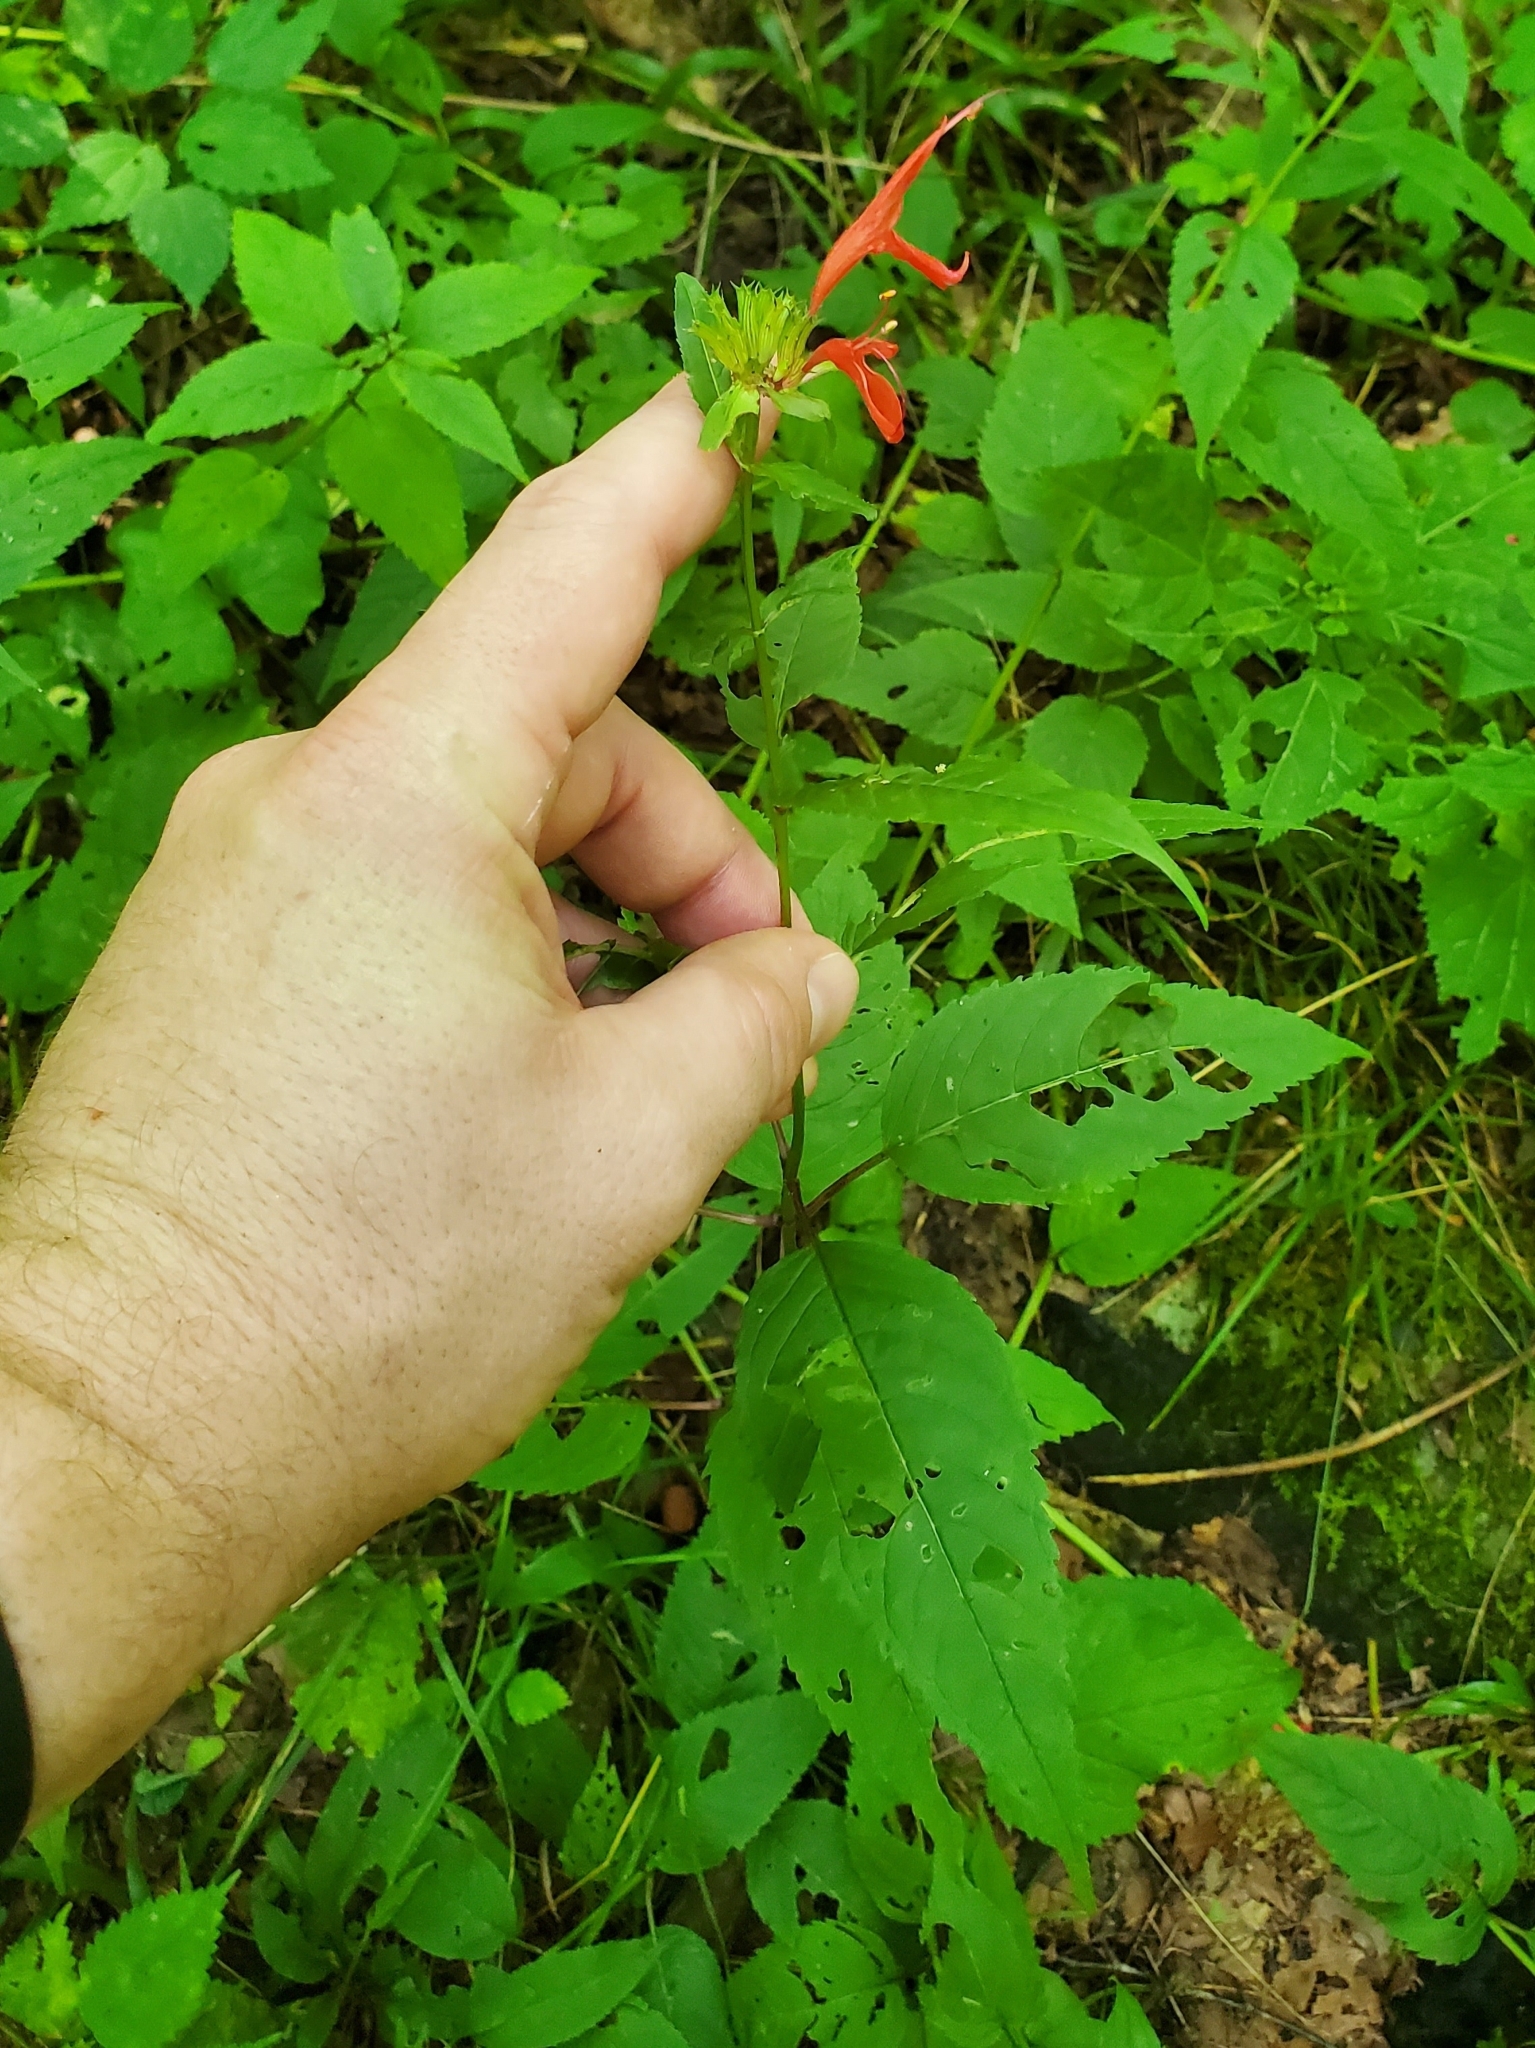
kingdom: Plantae
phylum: Tracheophyta
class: Magnoliopsida
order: Lamiales
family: Lamiaceae
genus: Monarda
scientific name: Monarda didyma
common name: Beebalm
